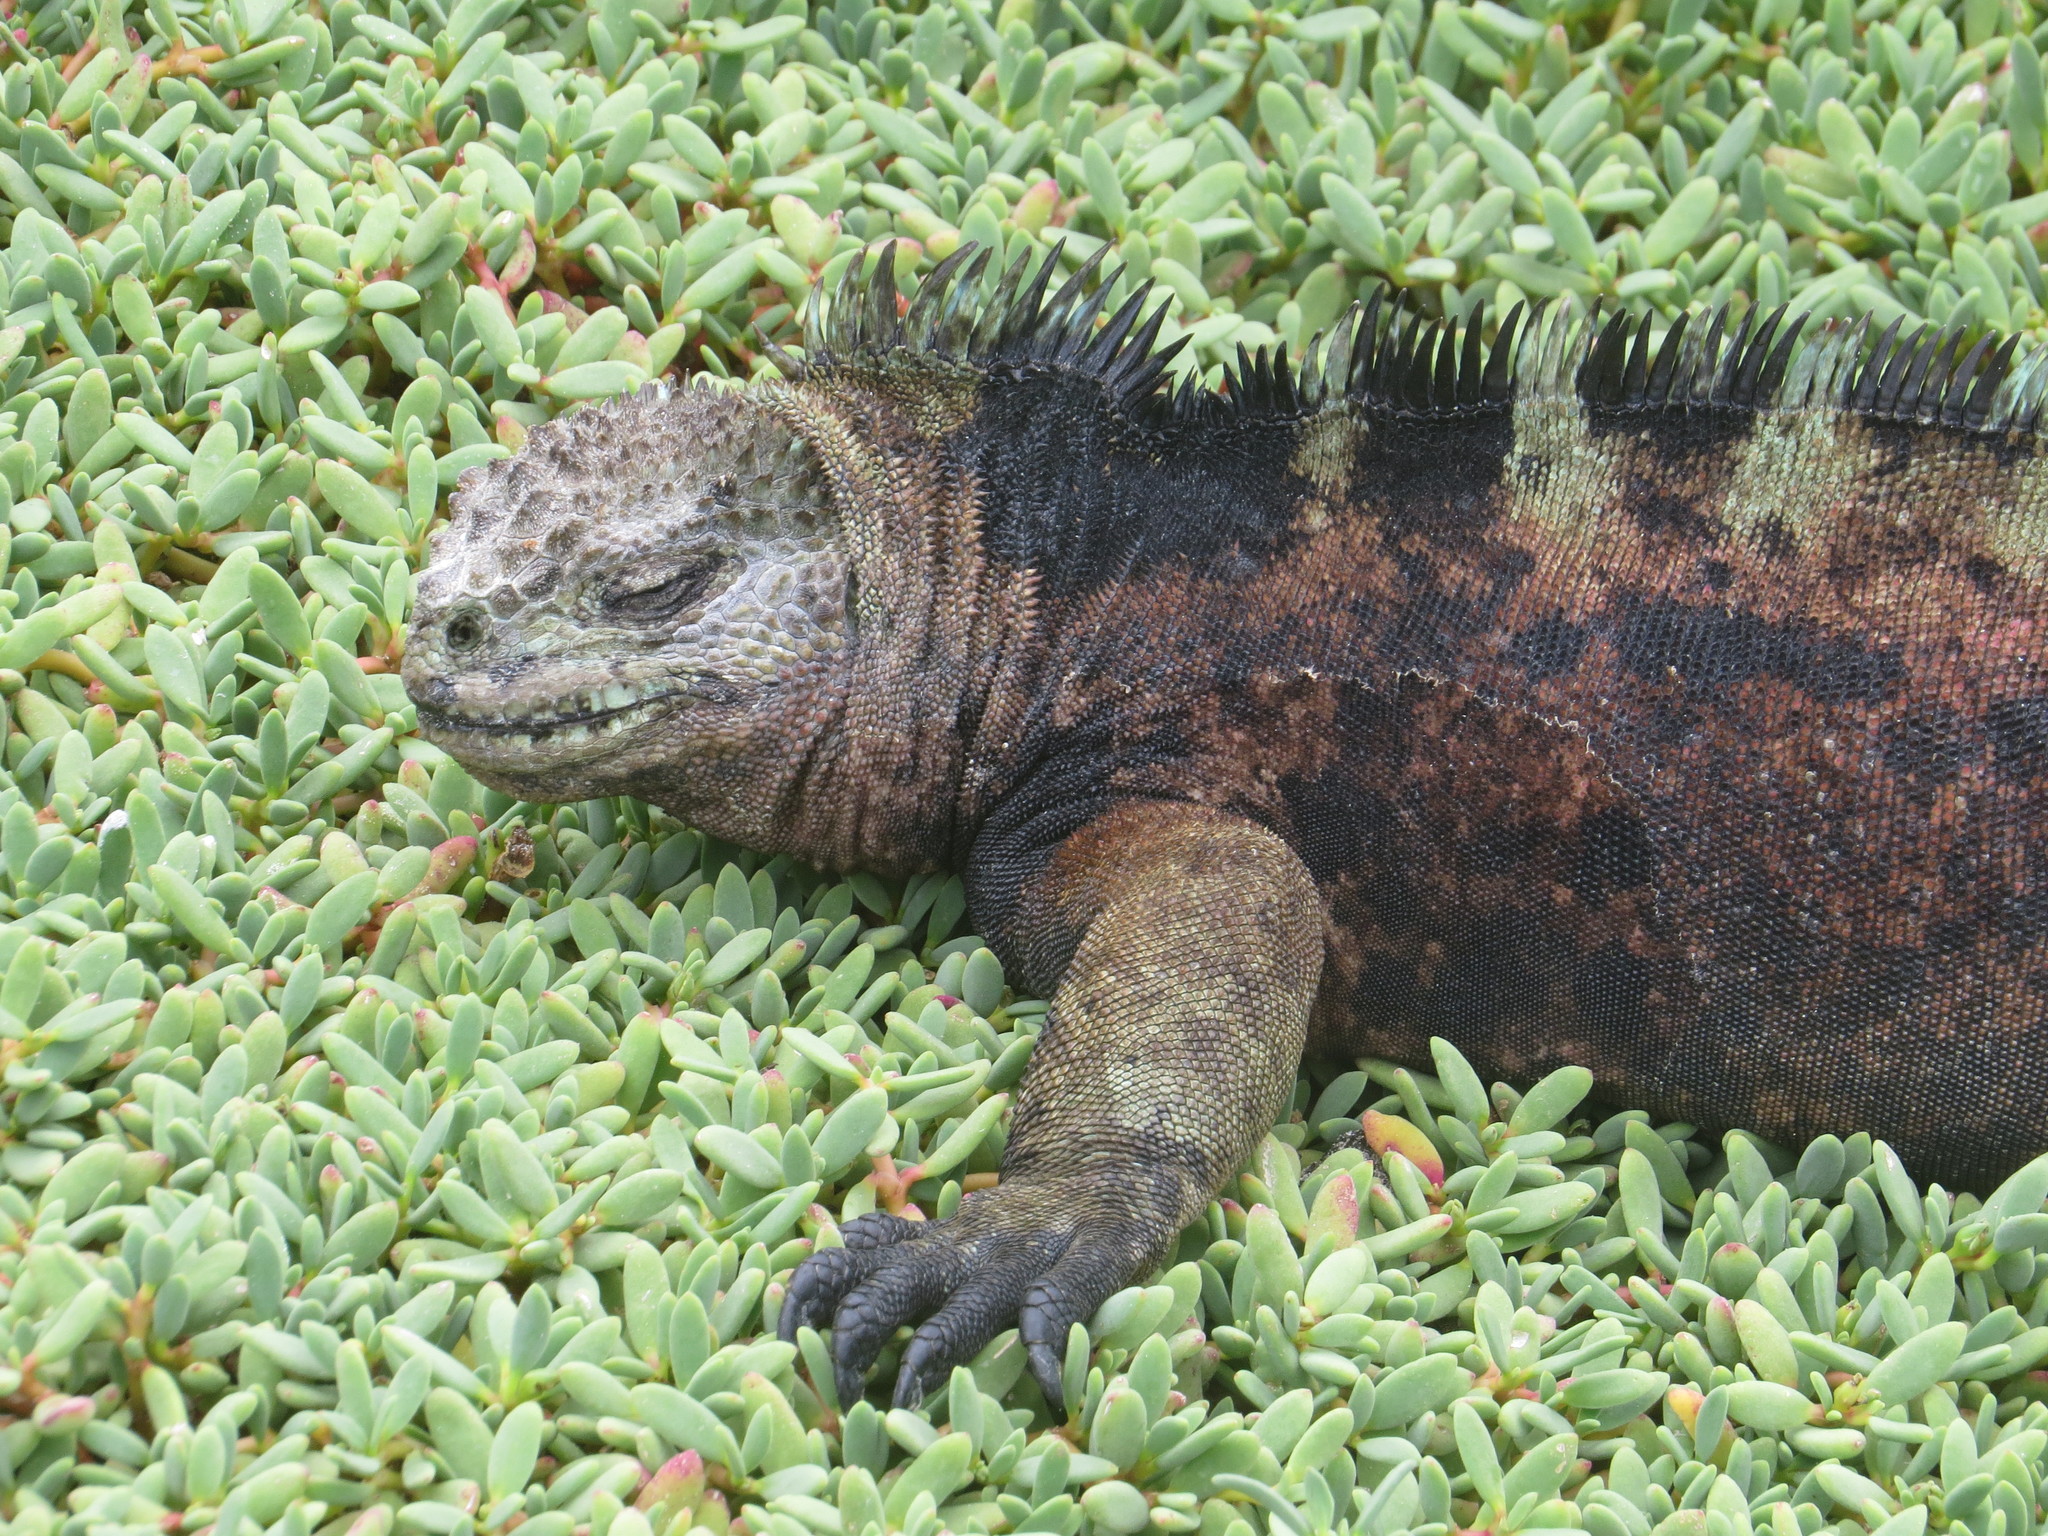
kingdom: Animalia
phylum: Chordata
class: Squamata
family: Iguanidae
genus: Amblyrhynchus
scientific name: Amblyrhynchus cristatus
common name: Marine iguana
